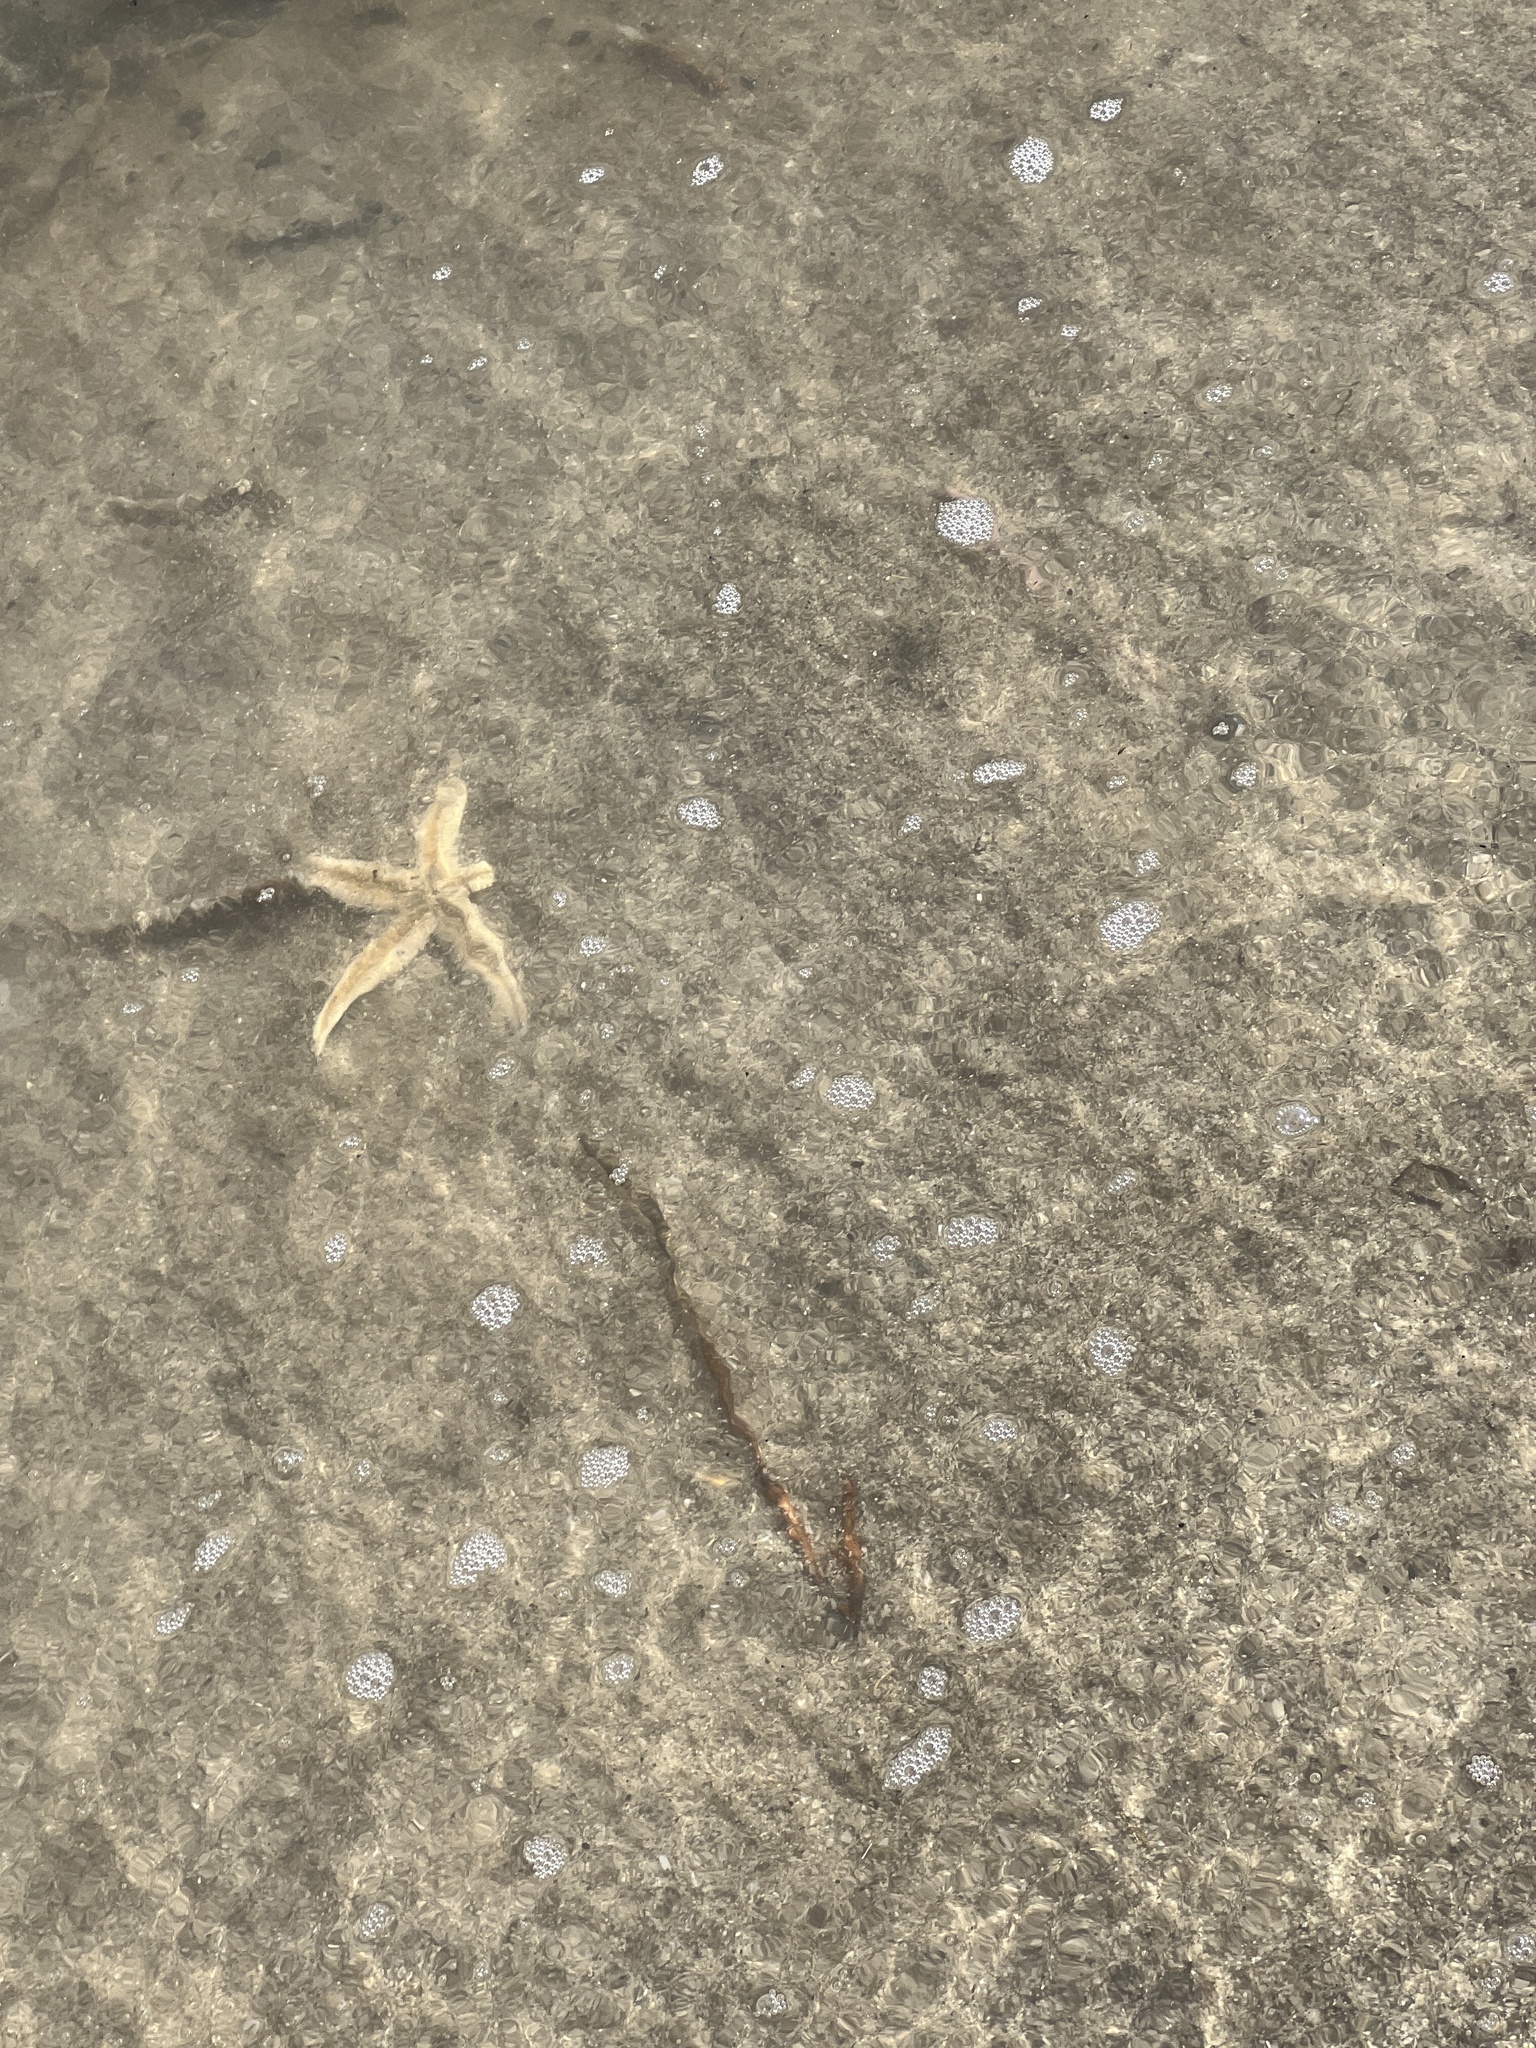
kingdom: Animalia
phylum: Echinodermata
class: Asteroidea
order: Paxillosida
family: Luidiidae
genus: Luidia
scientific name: Luidia clathrata
